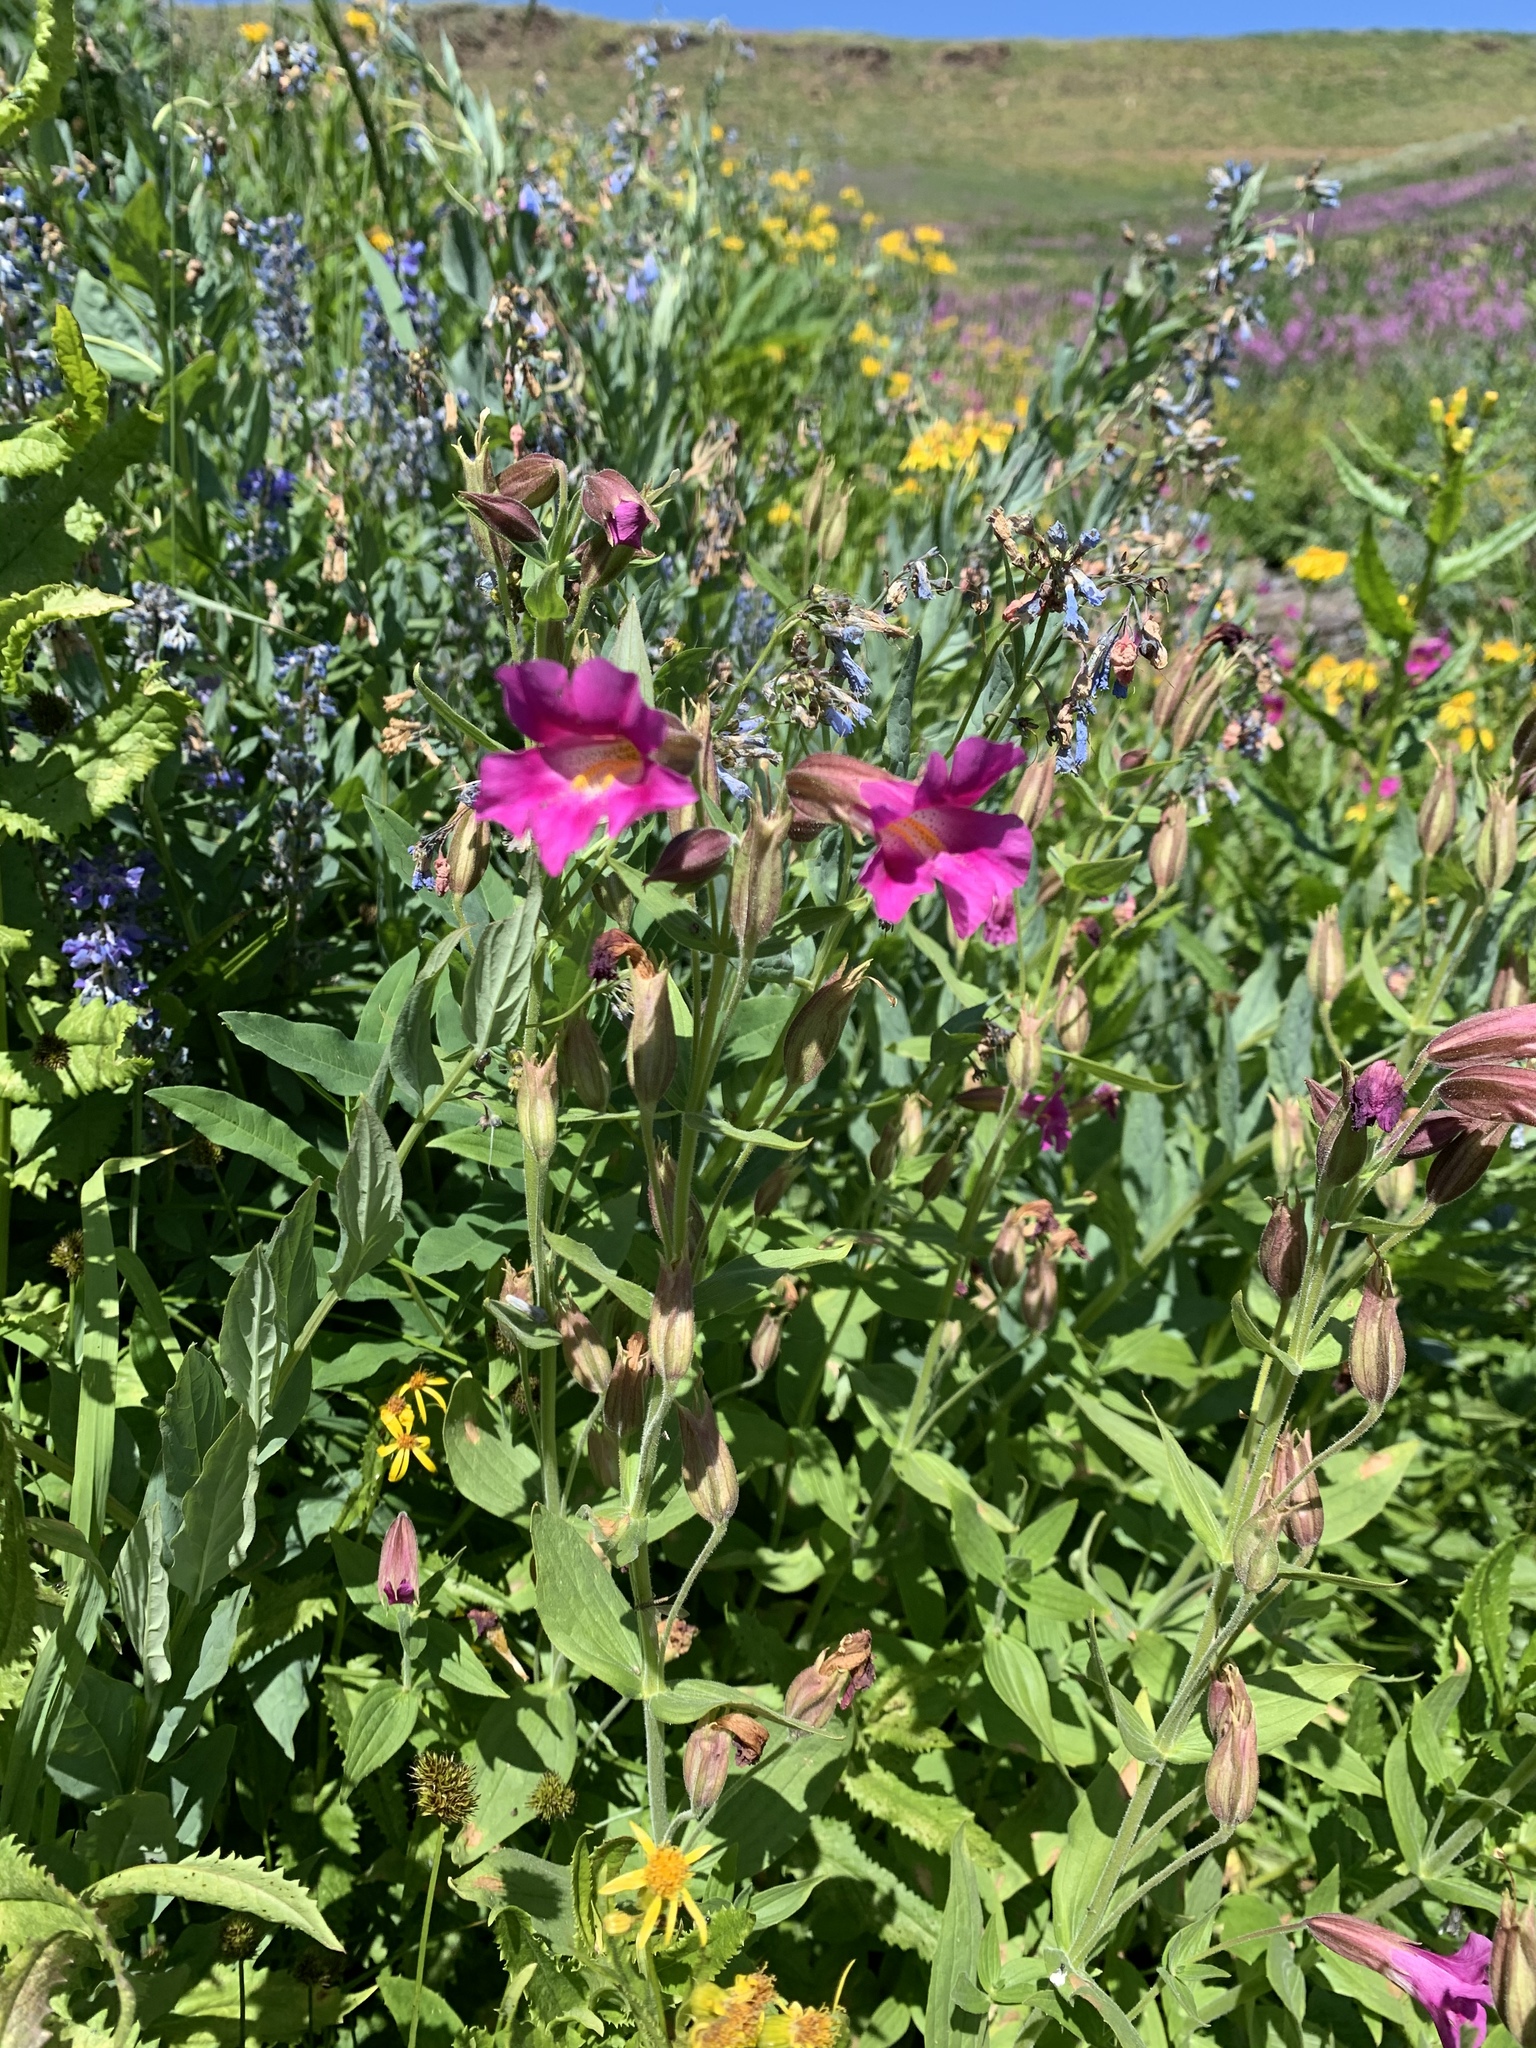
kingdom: Plantae
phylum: Tracheophyta
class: Magnoliopsida
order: Lamiales
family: Phrymaceae
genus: Erythranthe
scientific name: Erythranthe lewisii
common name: Lewis's monkey-flower
